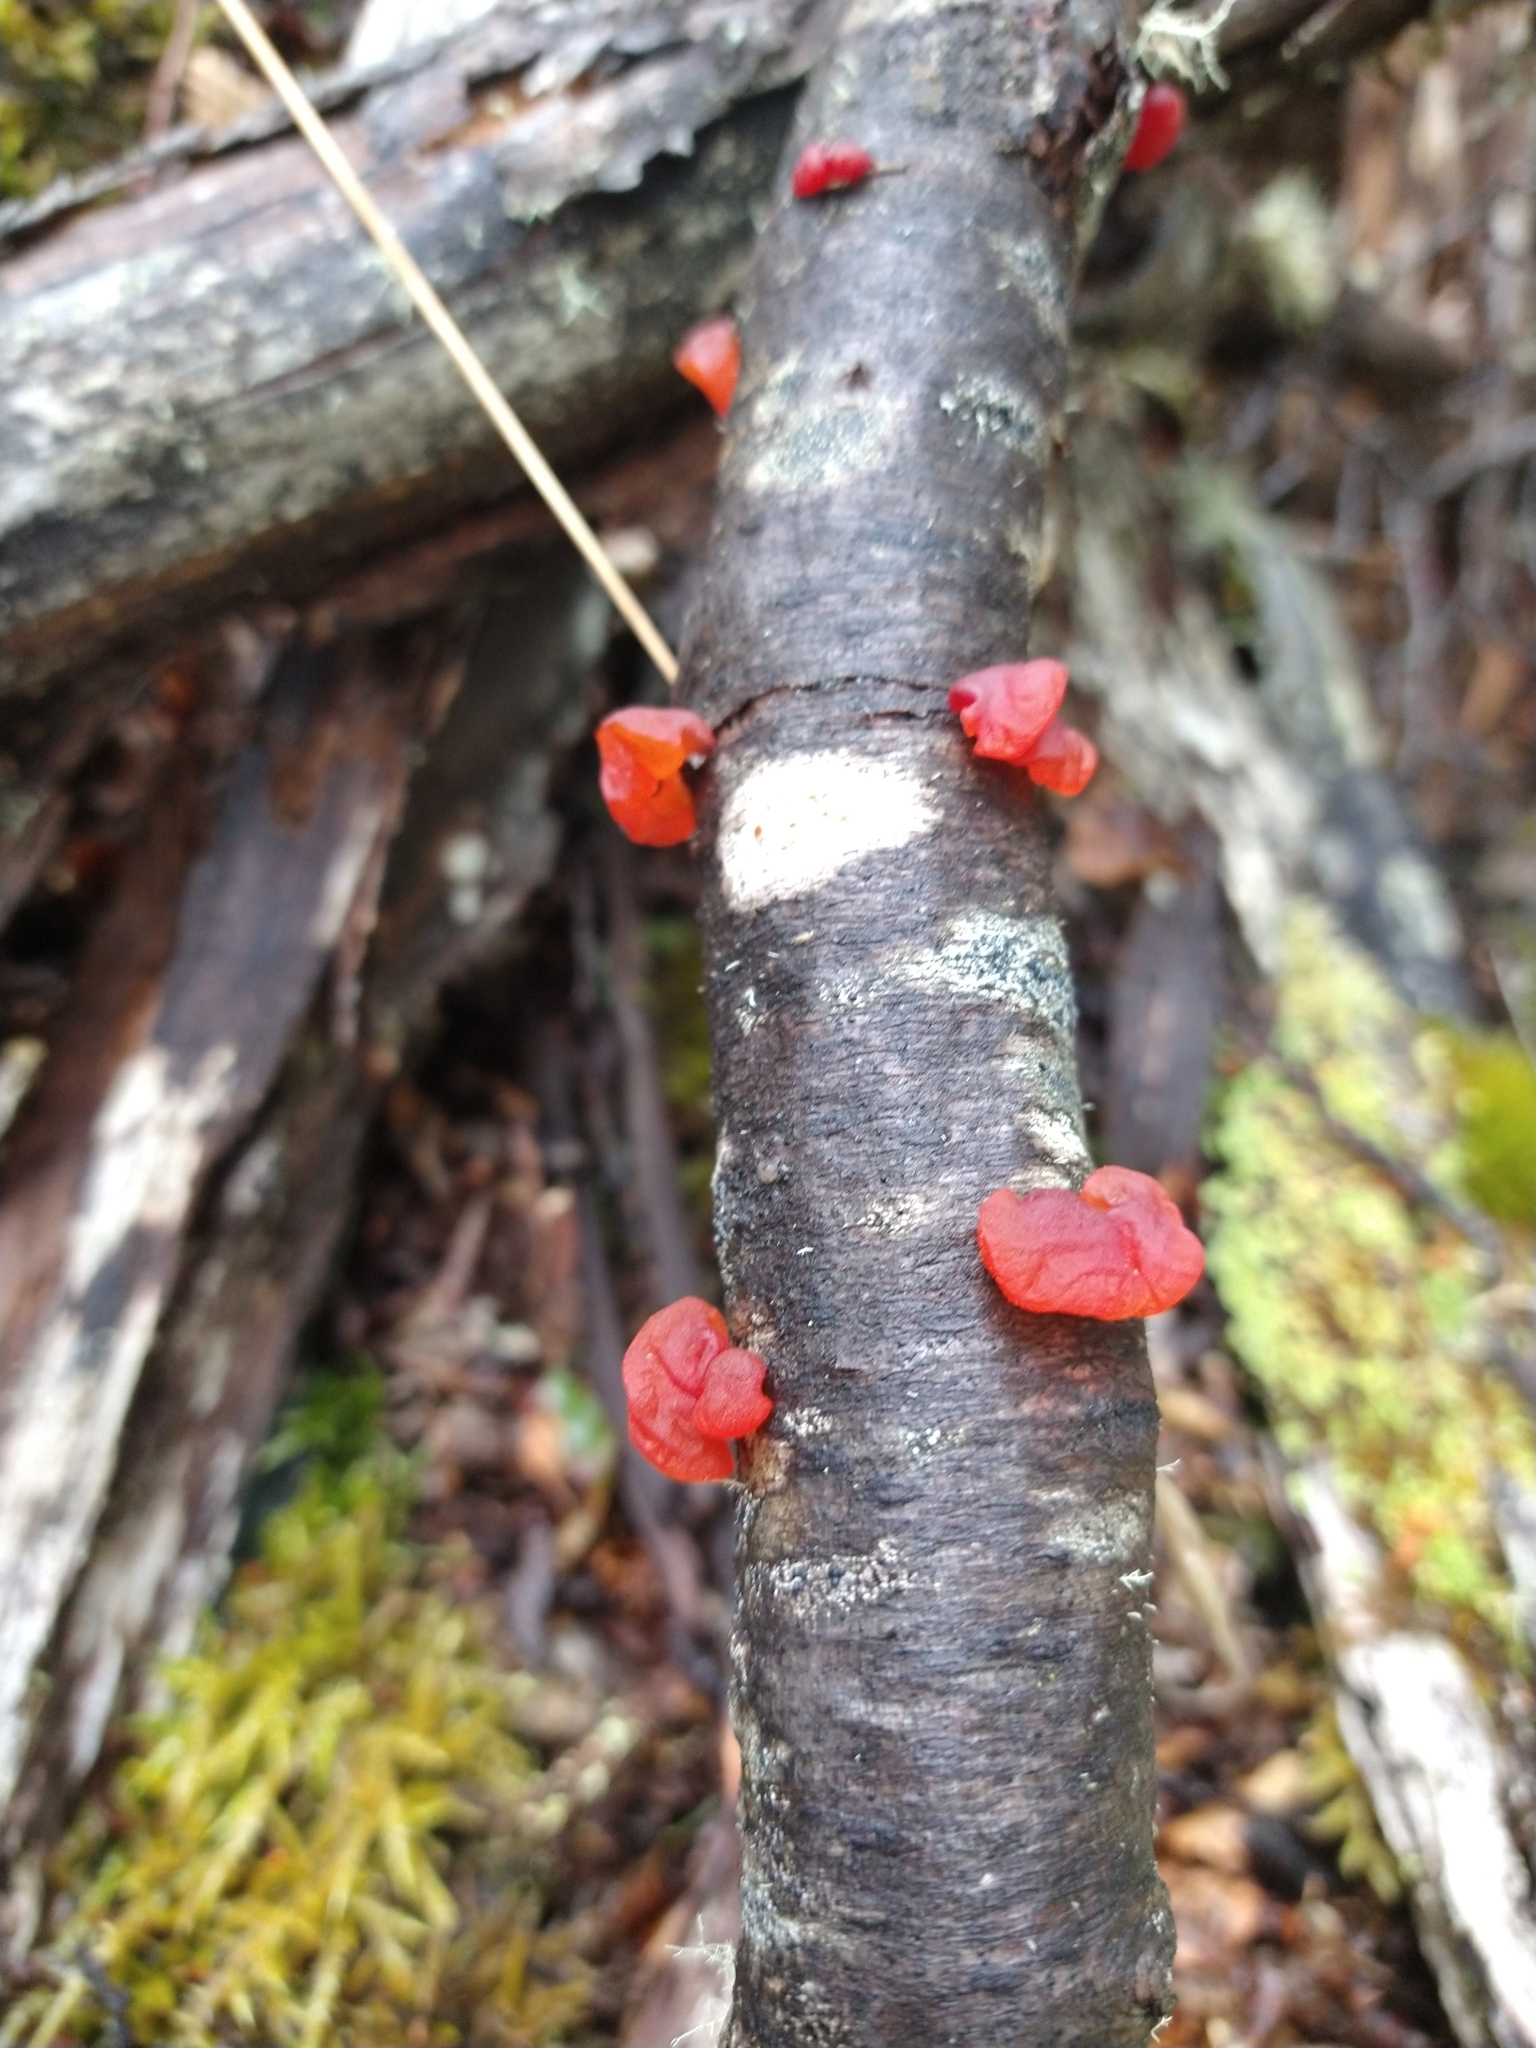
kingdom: Fungi
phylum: Basidiomycota
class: Dacrymycetes
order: Dacrymycetales
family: Dacrymycetaceae
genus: Guepiniopsis
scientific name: Guepiniopsis alpina
